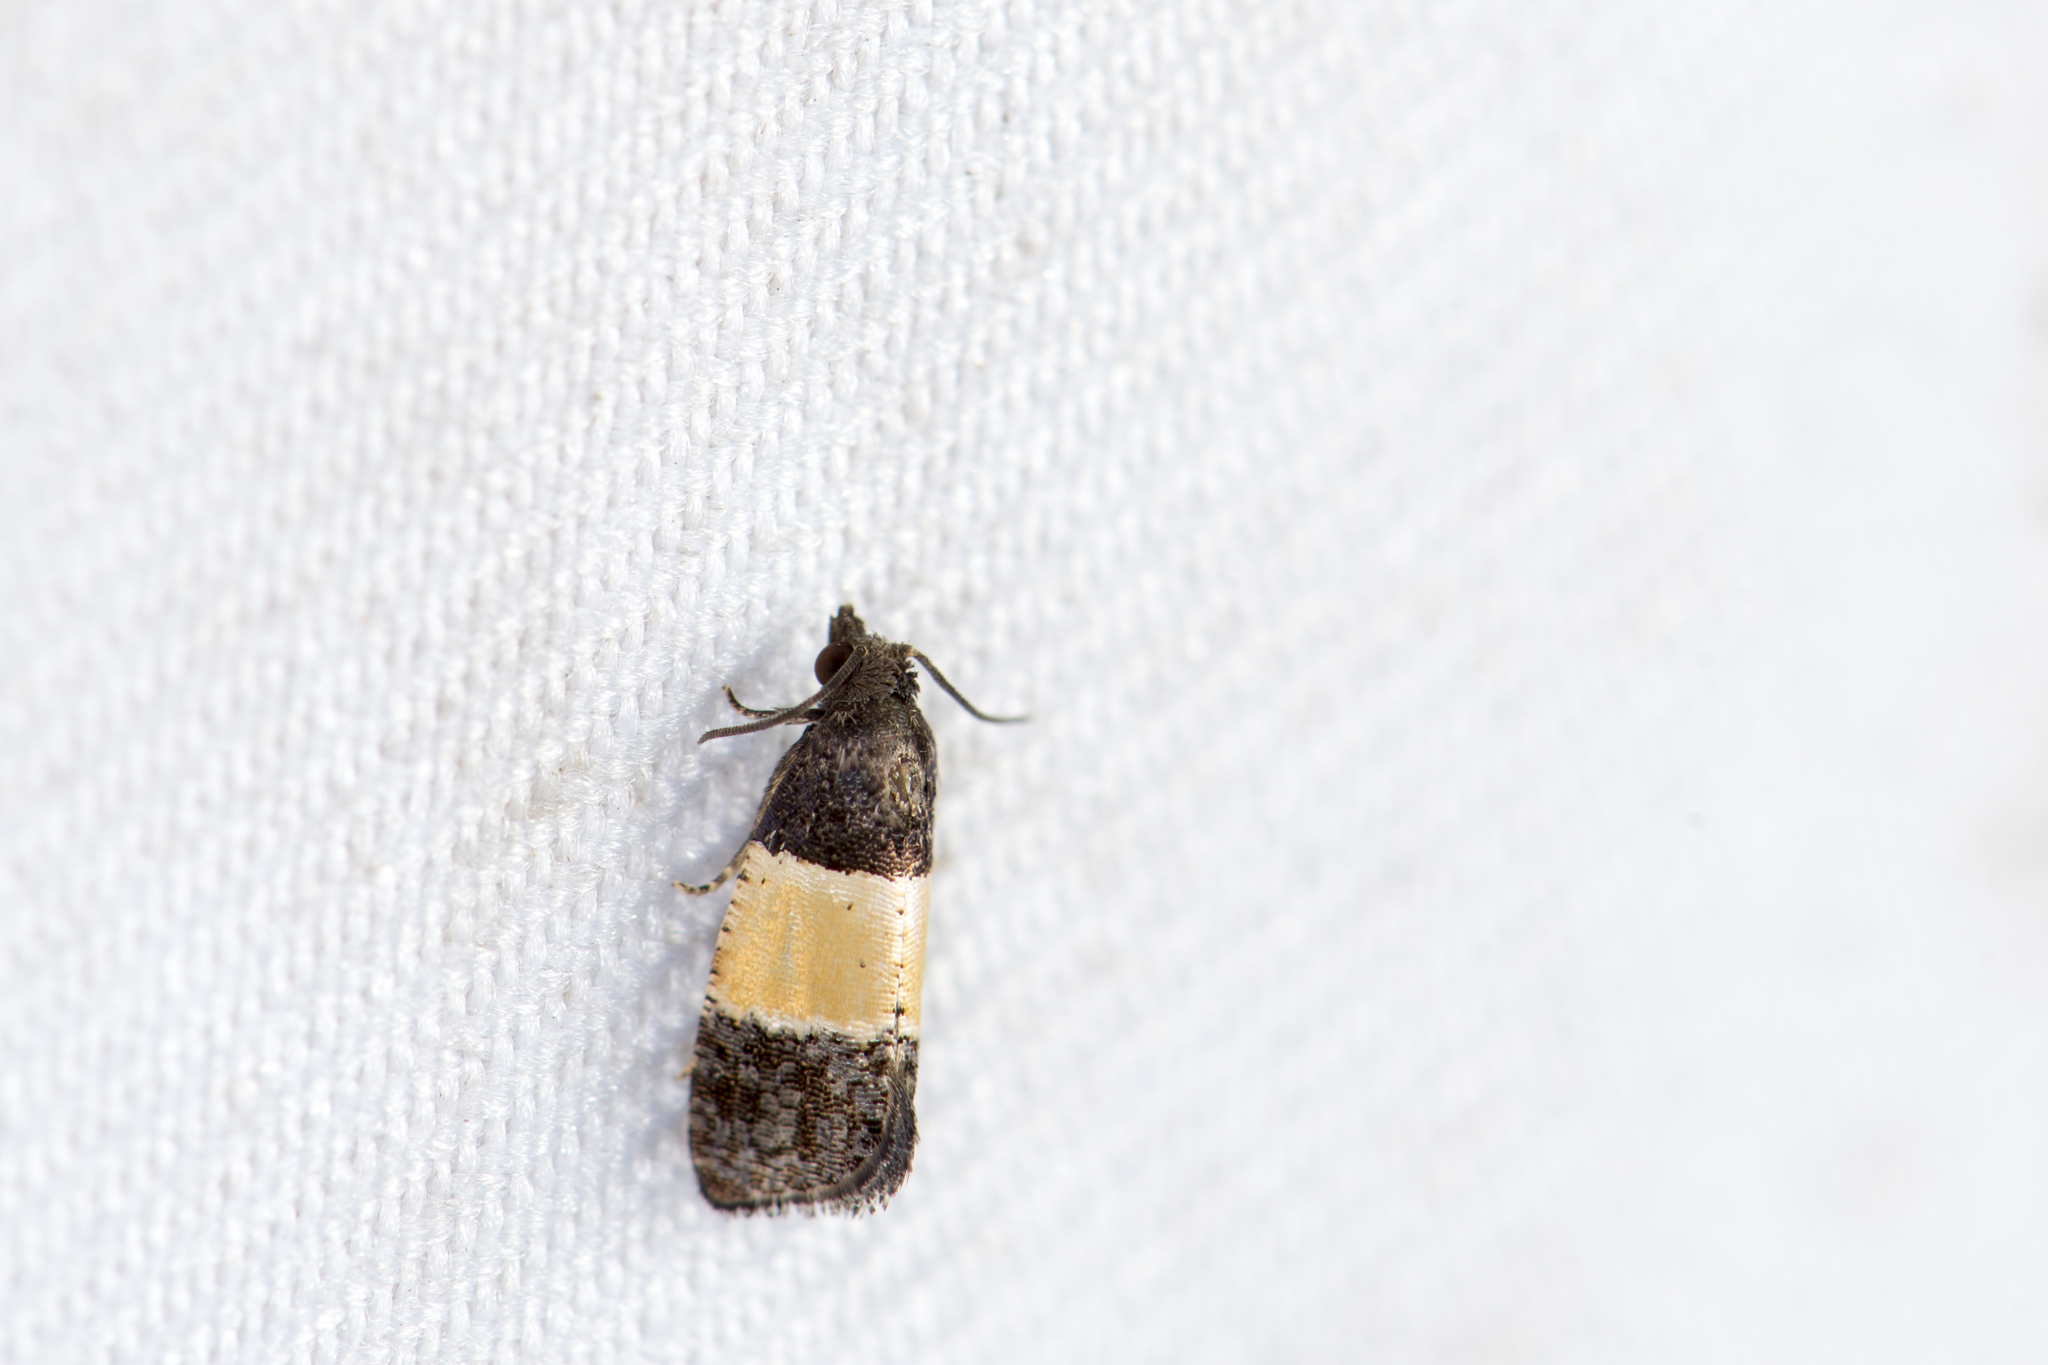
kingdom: Animalia
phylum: Arthropoda
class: Insecta
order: Lepidoptera
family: Tortricidae
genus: Epinotia
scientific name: Epinotia bicolor
